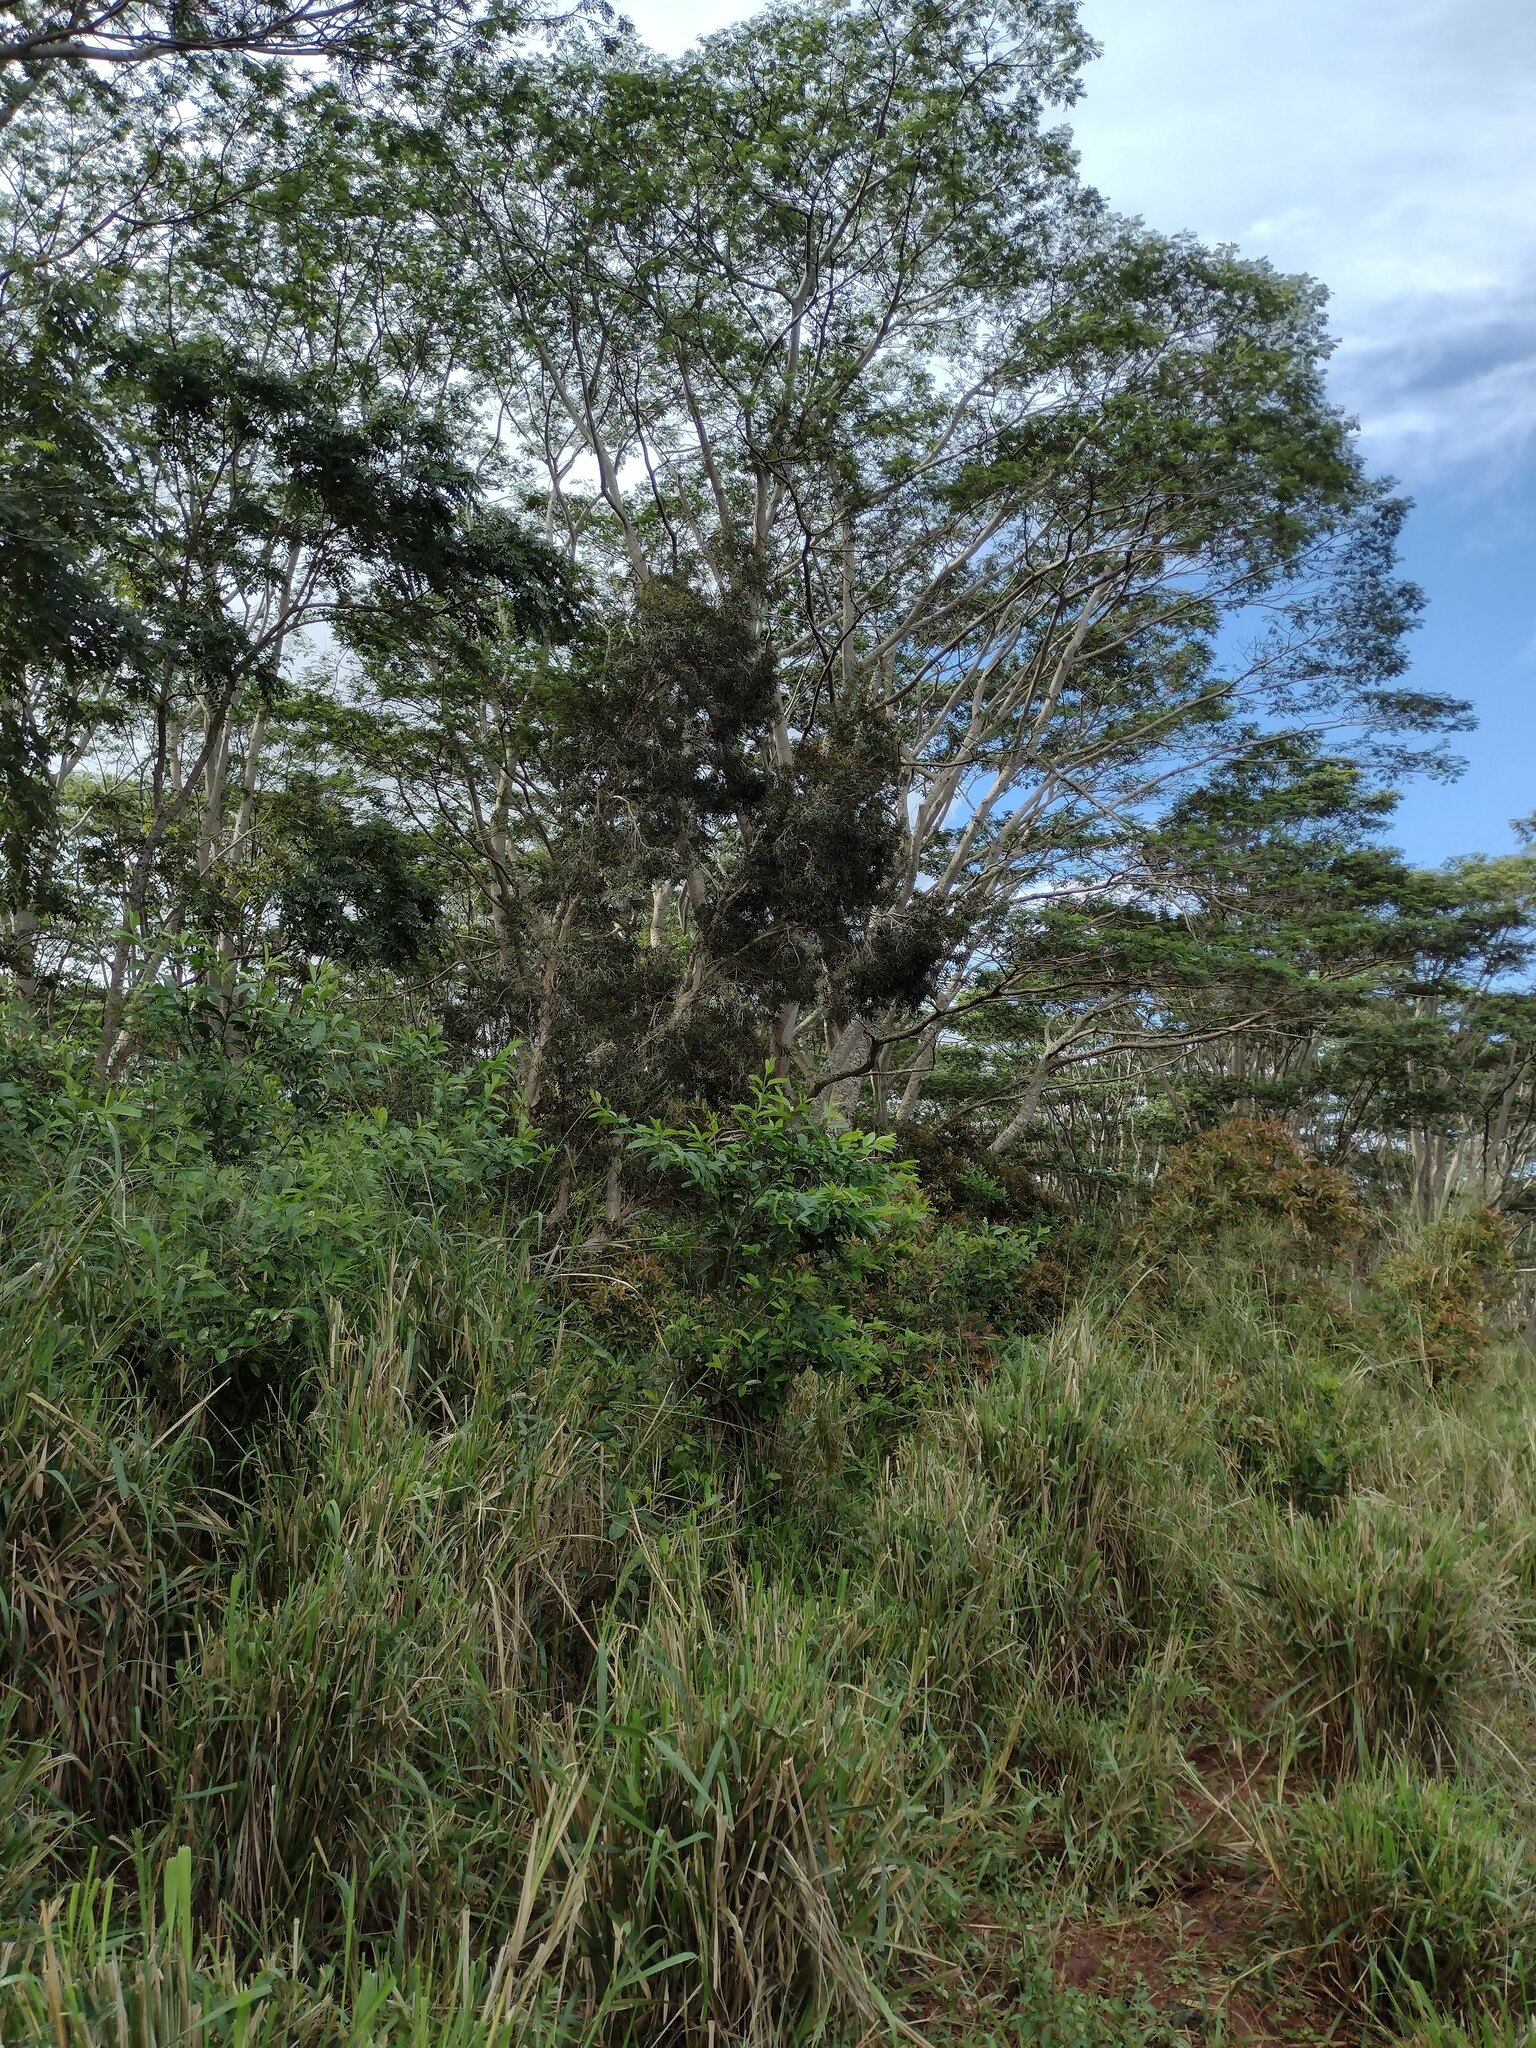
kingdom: Plantae
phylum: Tracheophyta
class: Magnoliopsida
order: Fabales
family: Fabaceae
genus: Falcataria
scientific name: Falcataria falcata
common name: Moluccan albizia
